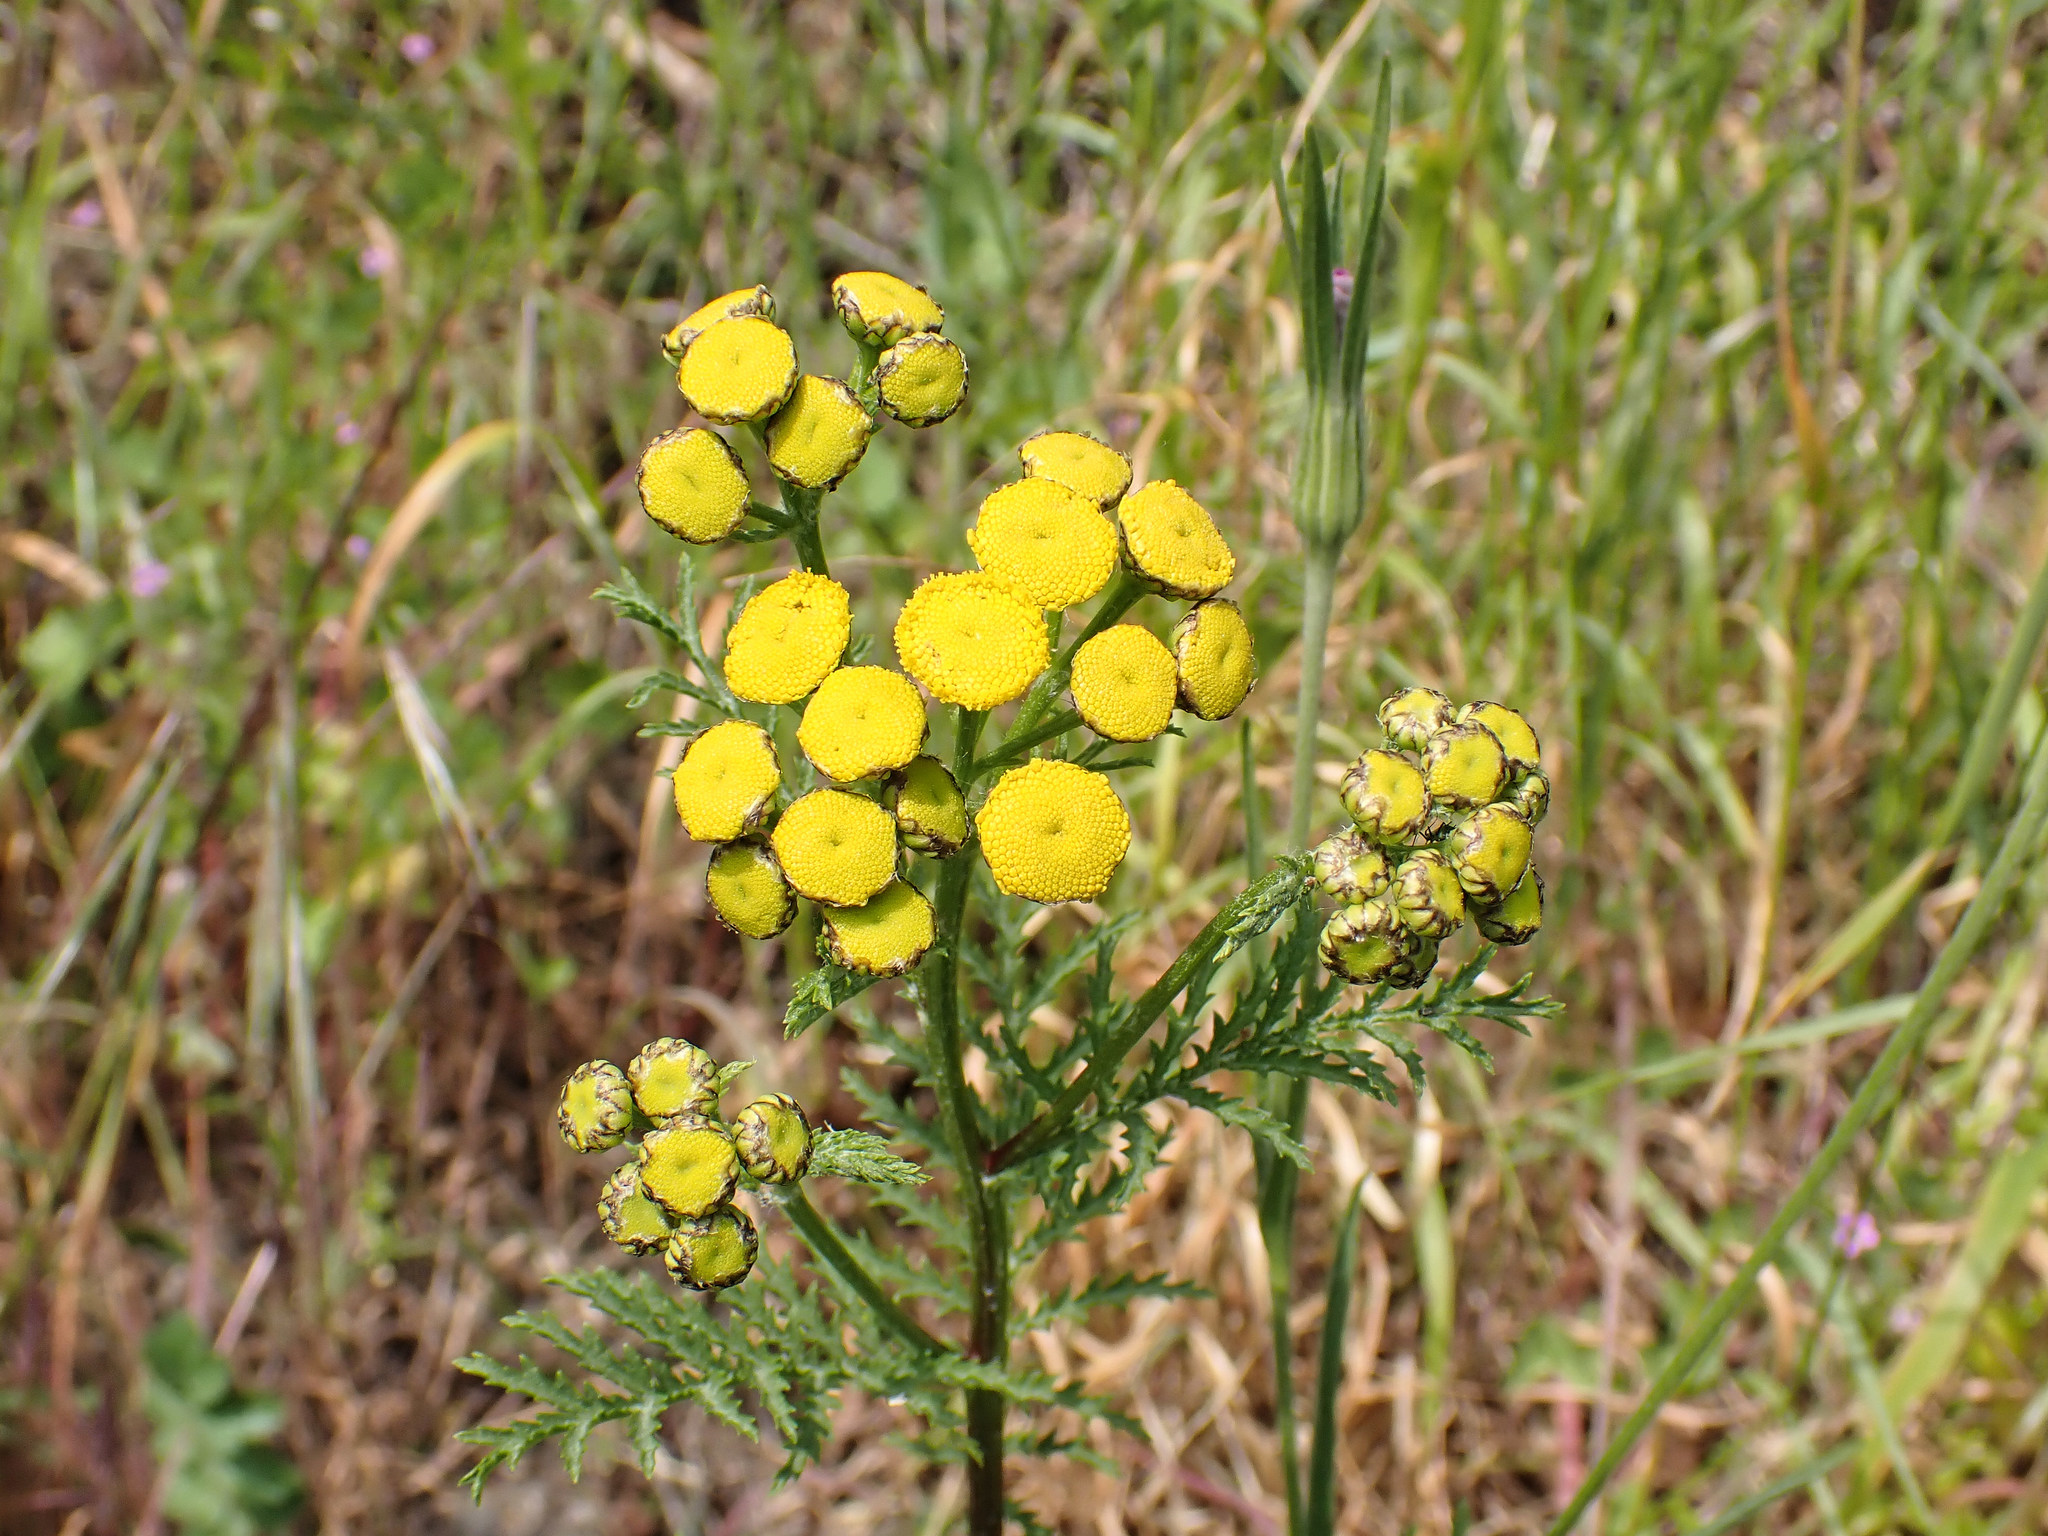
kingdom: Plantae
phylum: Tracheophyta
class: Magnoliopsida
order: Asterales
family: Asteraceae
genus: Tanacetum
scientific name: Tanacetum vulgare
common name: Common tansy
